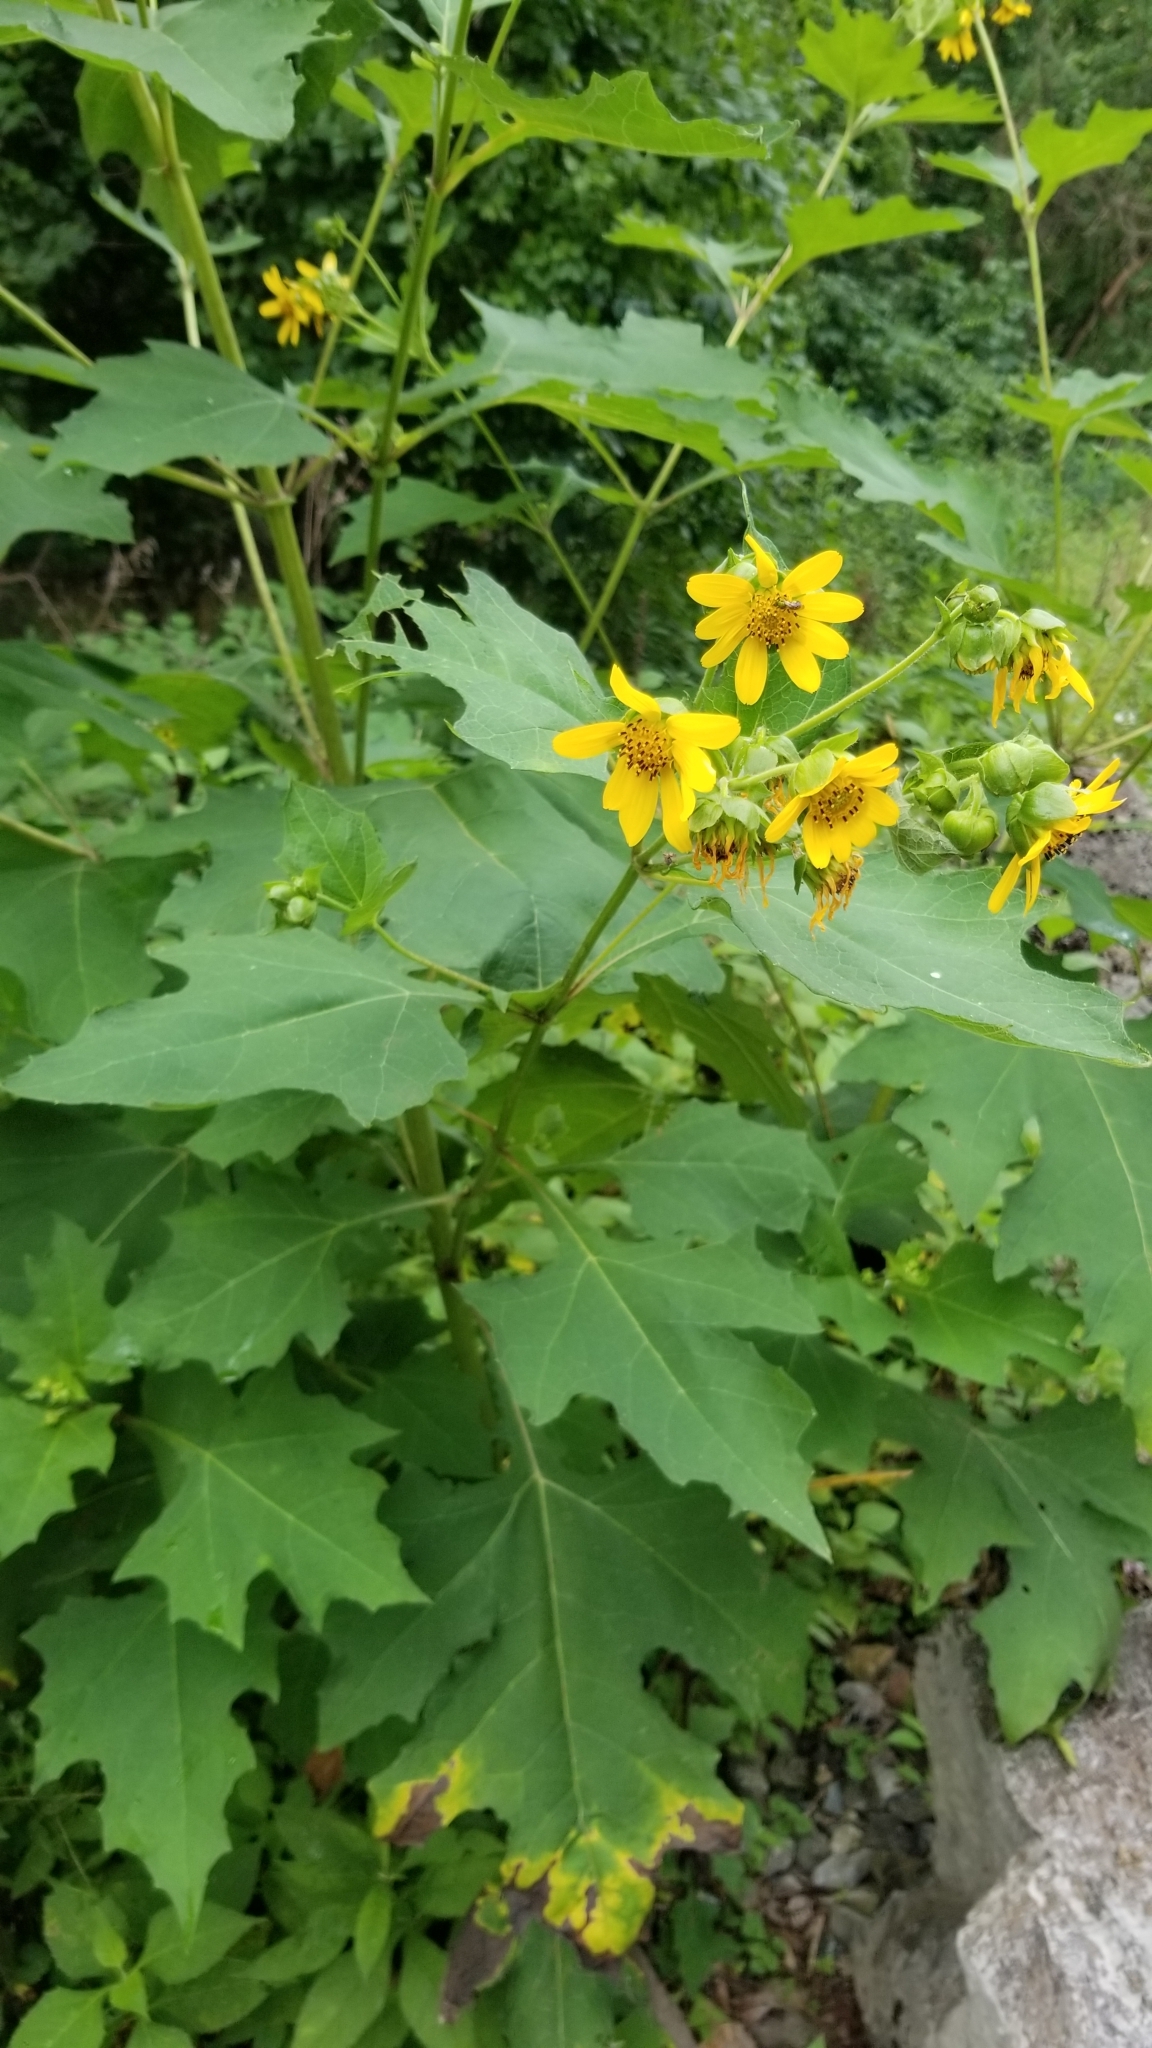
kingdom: Plantae
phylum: Tracheophyta
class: Magnoliopsida
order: Asterales
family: Asteraceae
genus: Smallanthus
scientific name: Smallanthus uvedalia
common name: Bear's-foot
